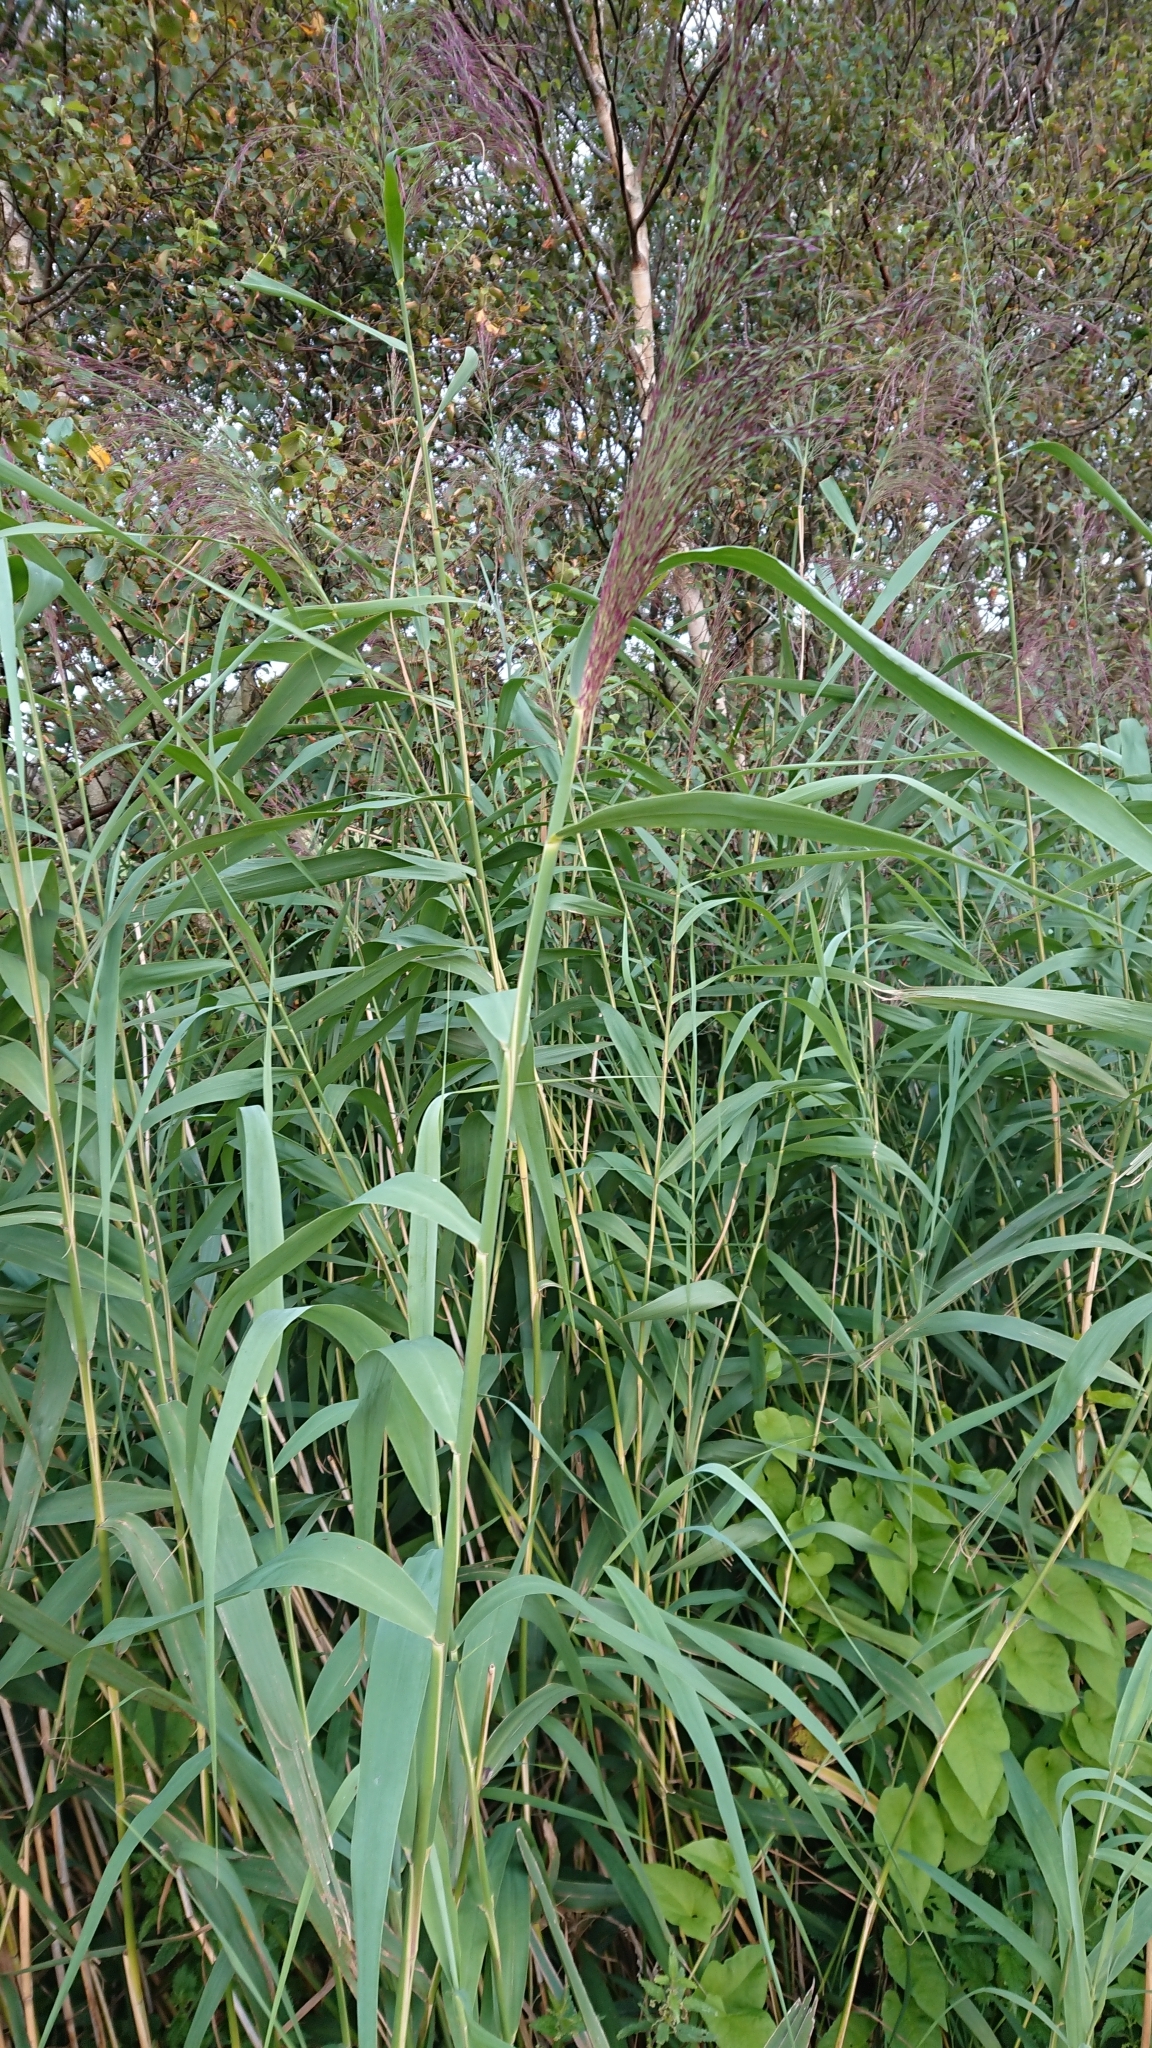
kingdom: Plantae
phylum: Tracheophyta
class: Liliopsida
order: Poales
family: Poaceae
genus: Phragmites
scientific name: Phragmites australis
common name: Common reed
